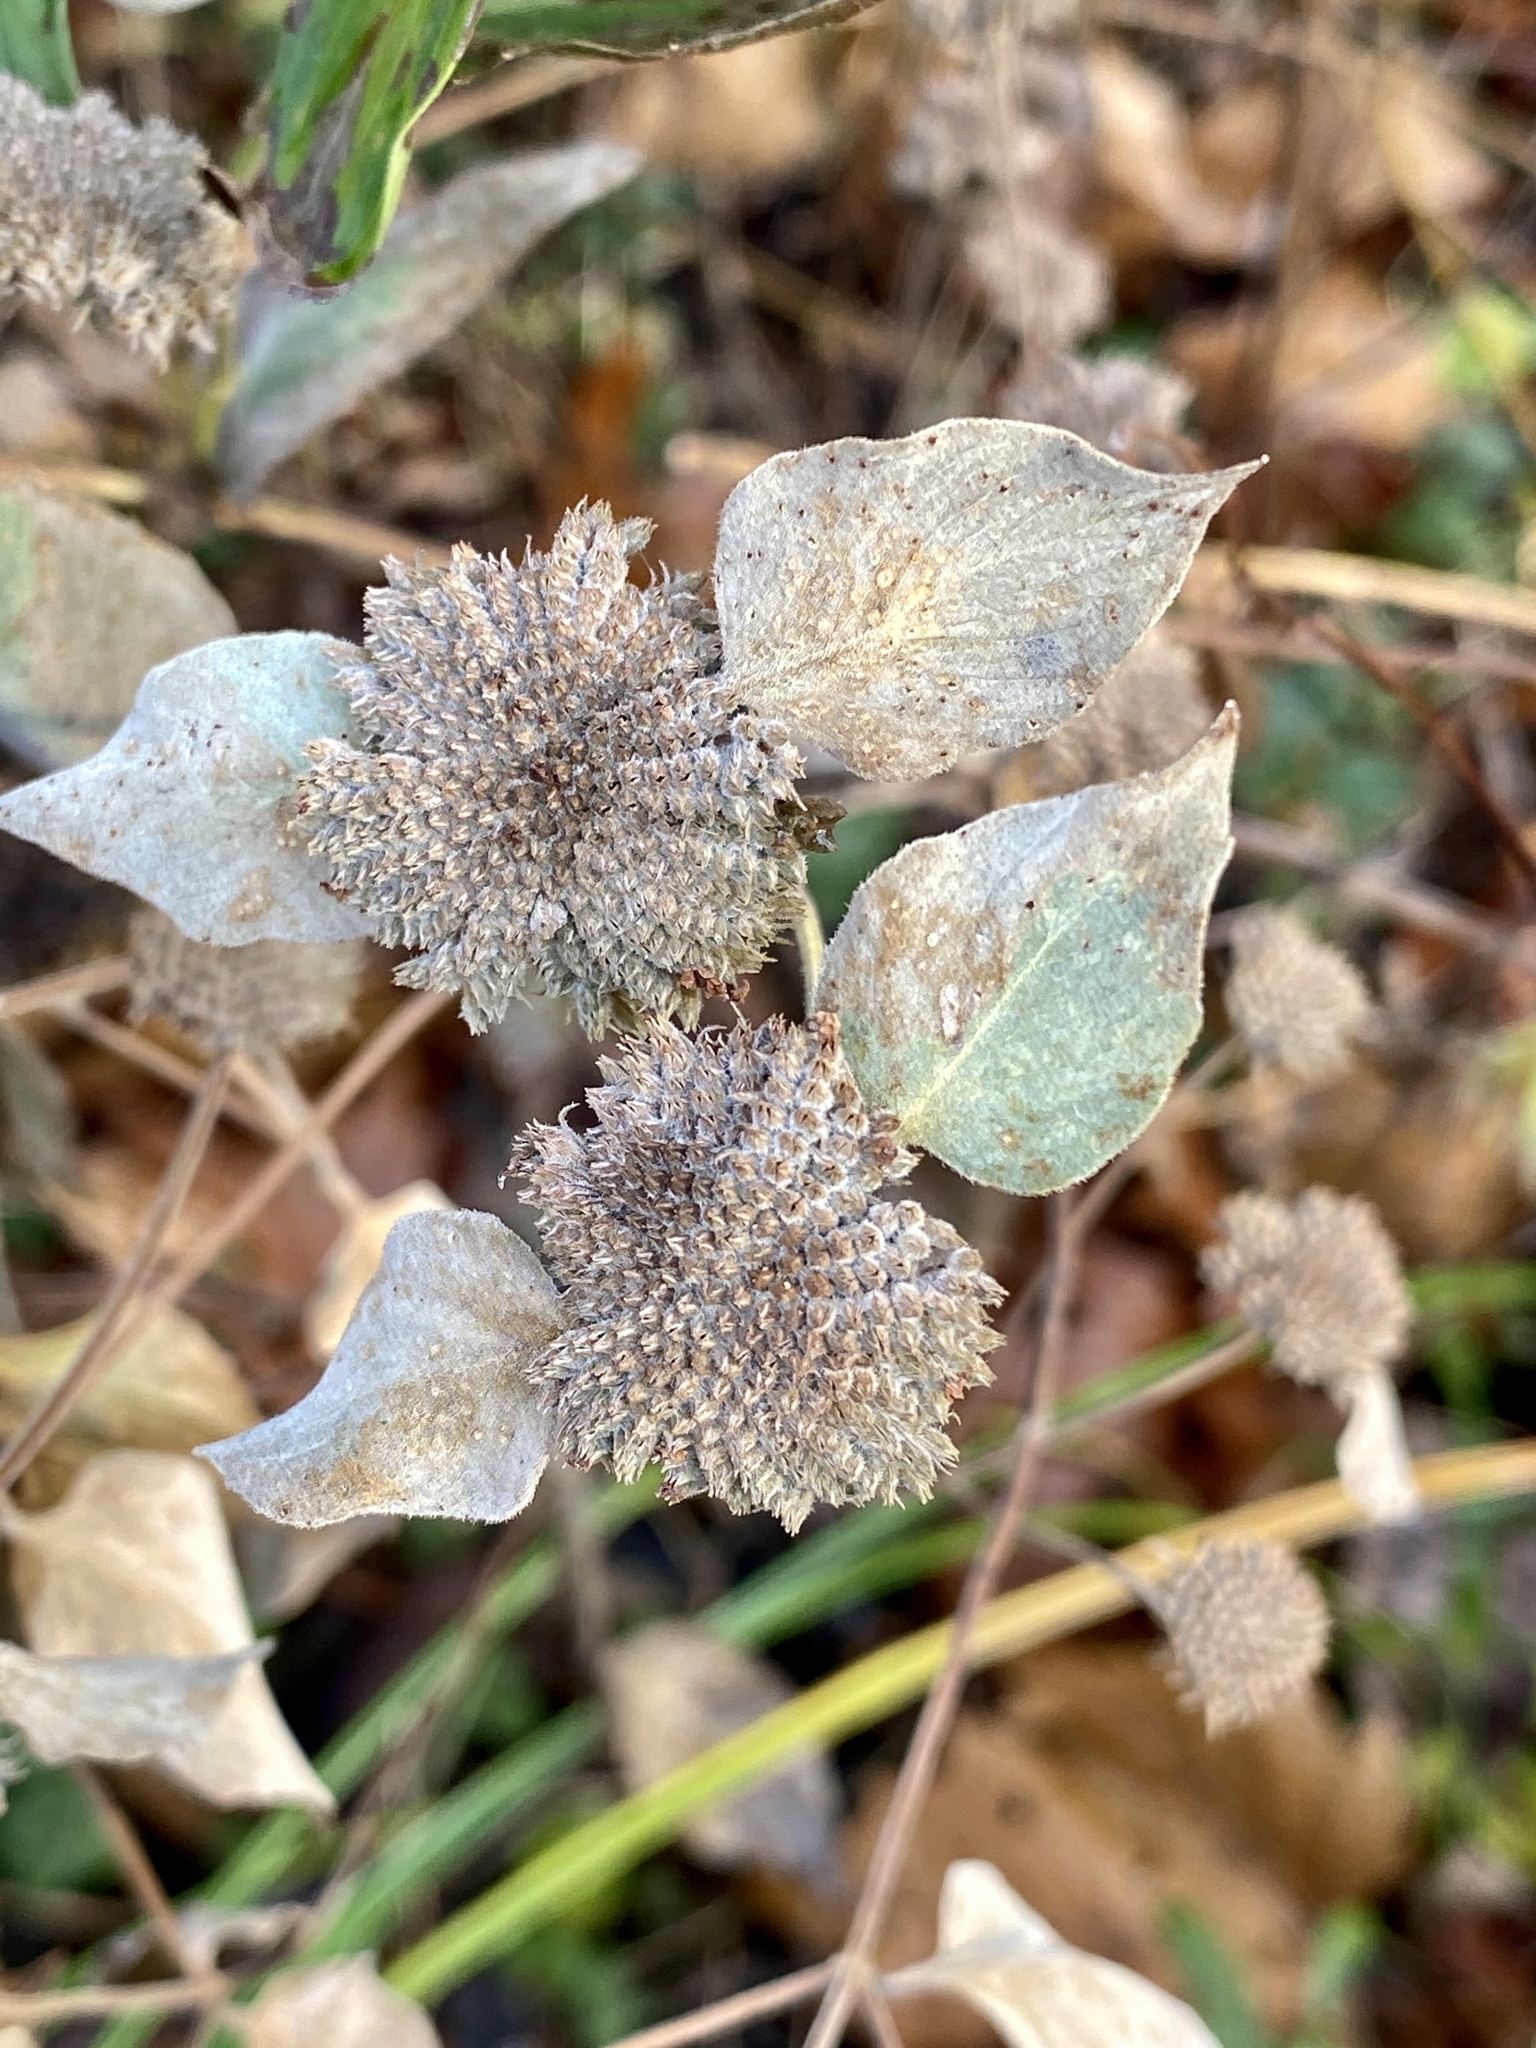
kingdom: Plantae
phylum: Tracheophyta
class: Magnoliopsida
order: Lamiales
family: Lamiaceae
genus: Pycnanthemum
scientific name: Pycnanthemum muticum
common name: Blunt mountain-mint
